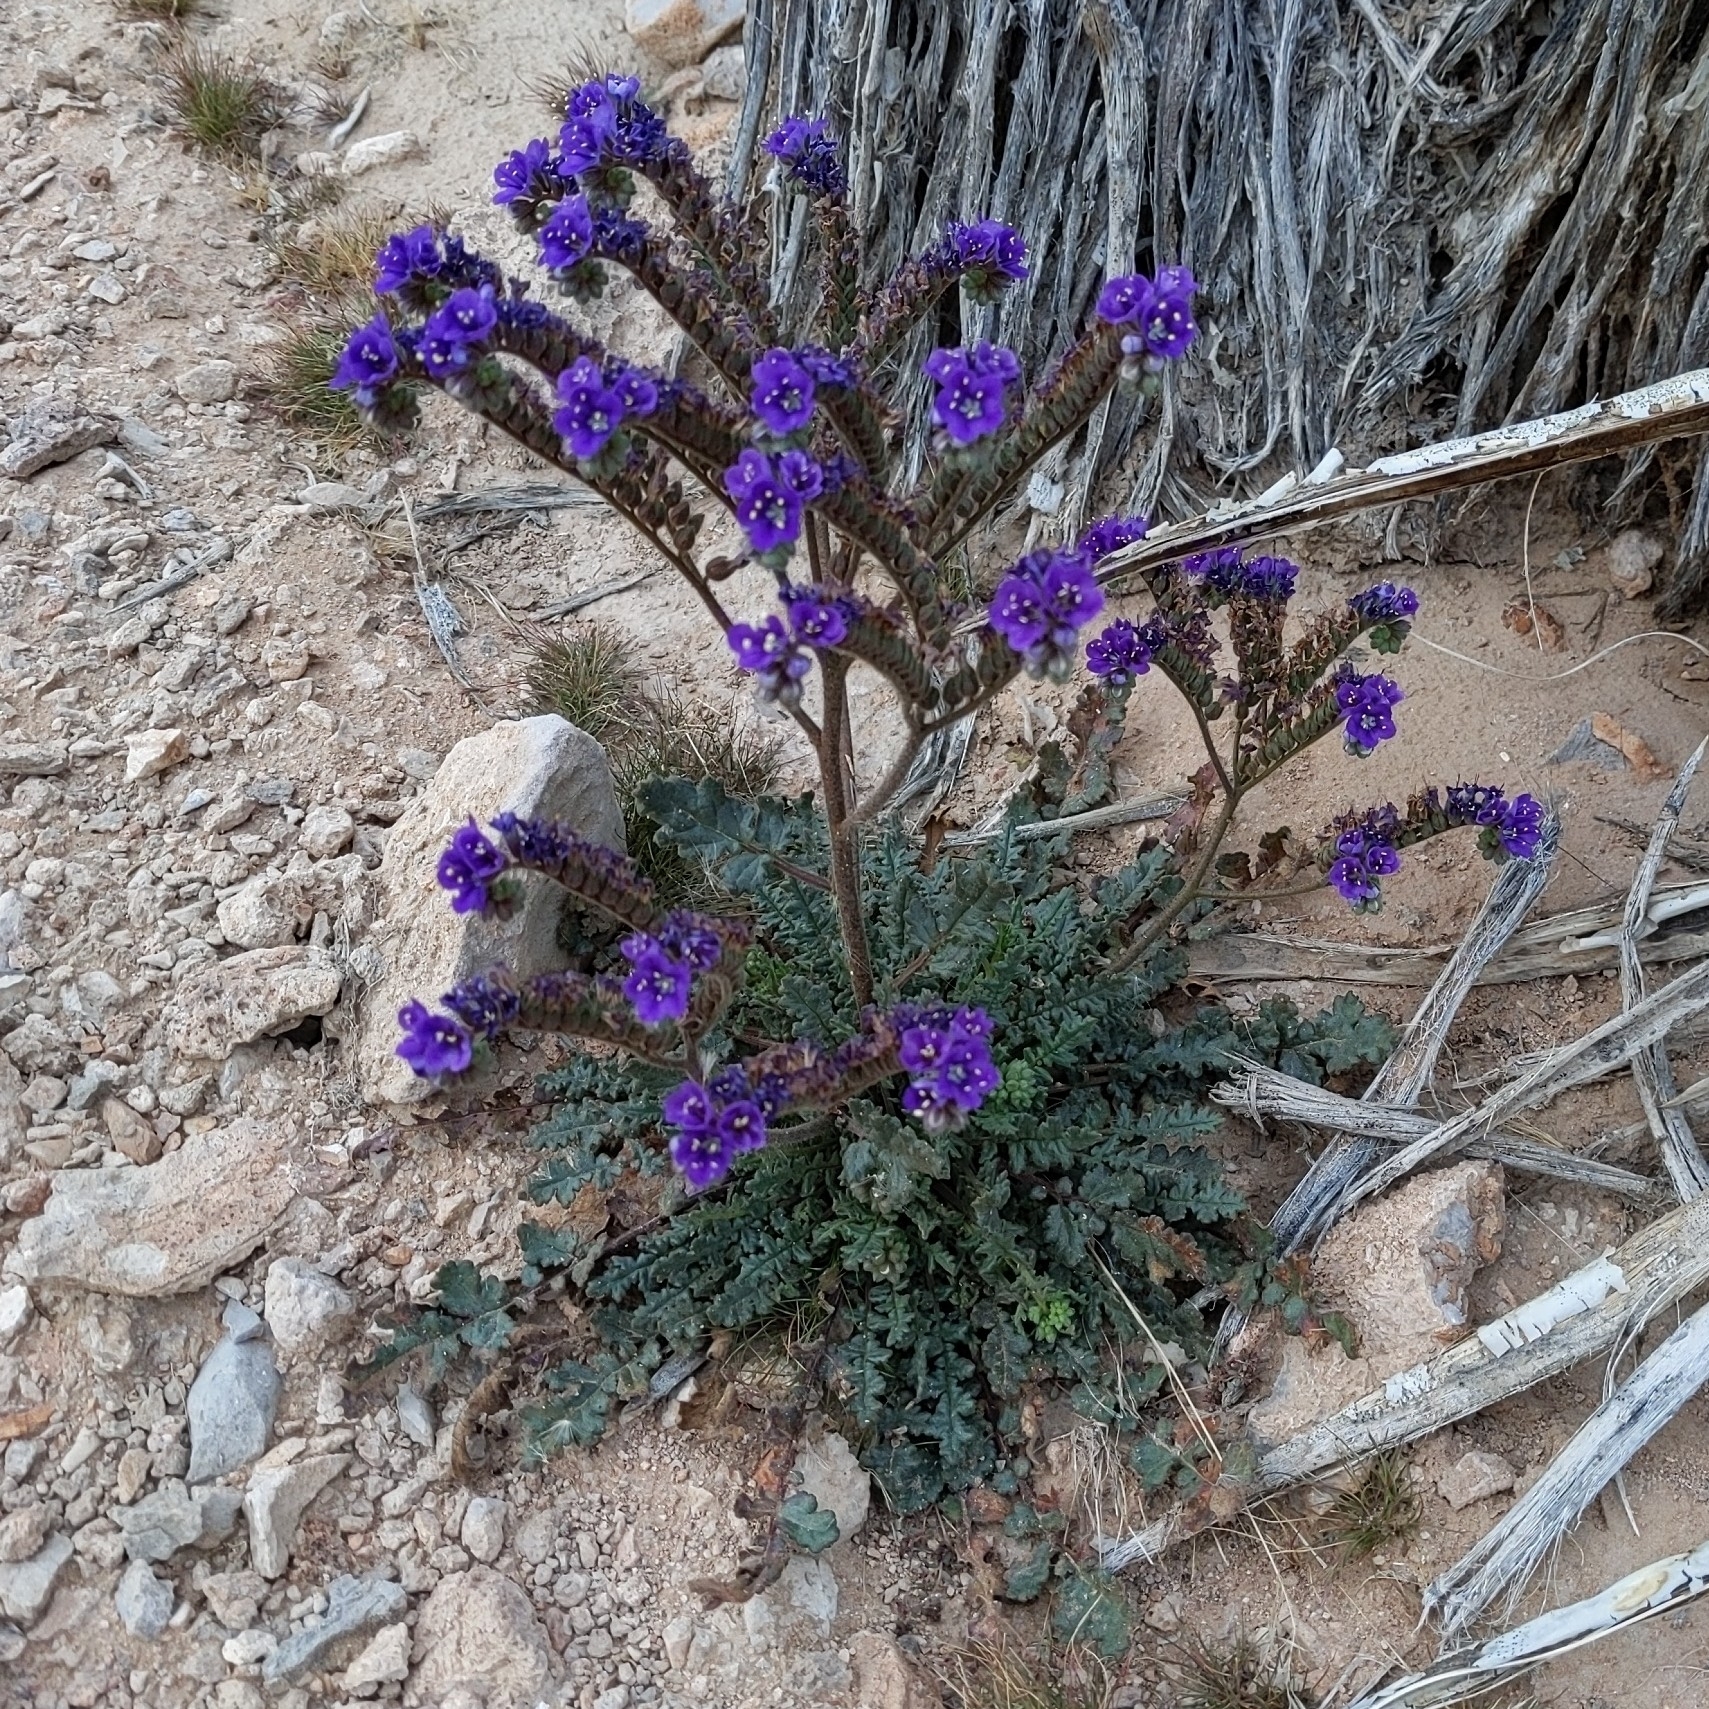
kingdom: Plantae
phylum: Tracheophyta
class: Magnoliopsida
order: Boraginales
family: Hydrophyllaceae
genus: Phacelia
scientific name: Phacelia crenulata
